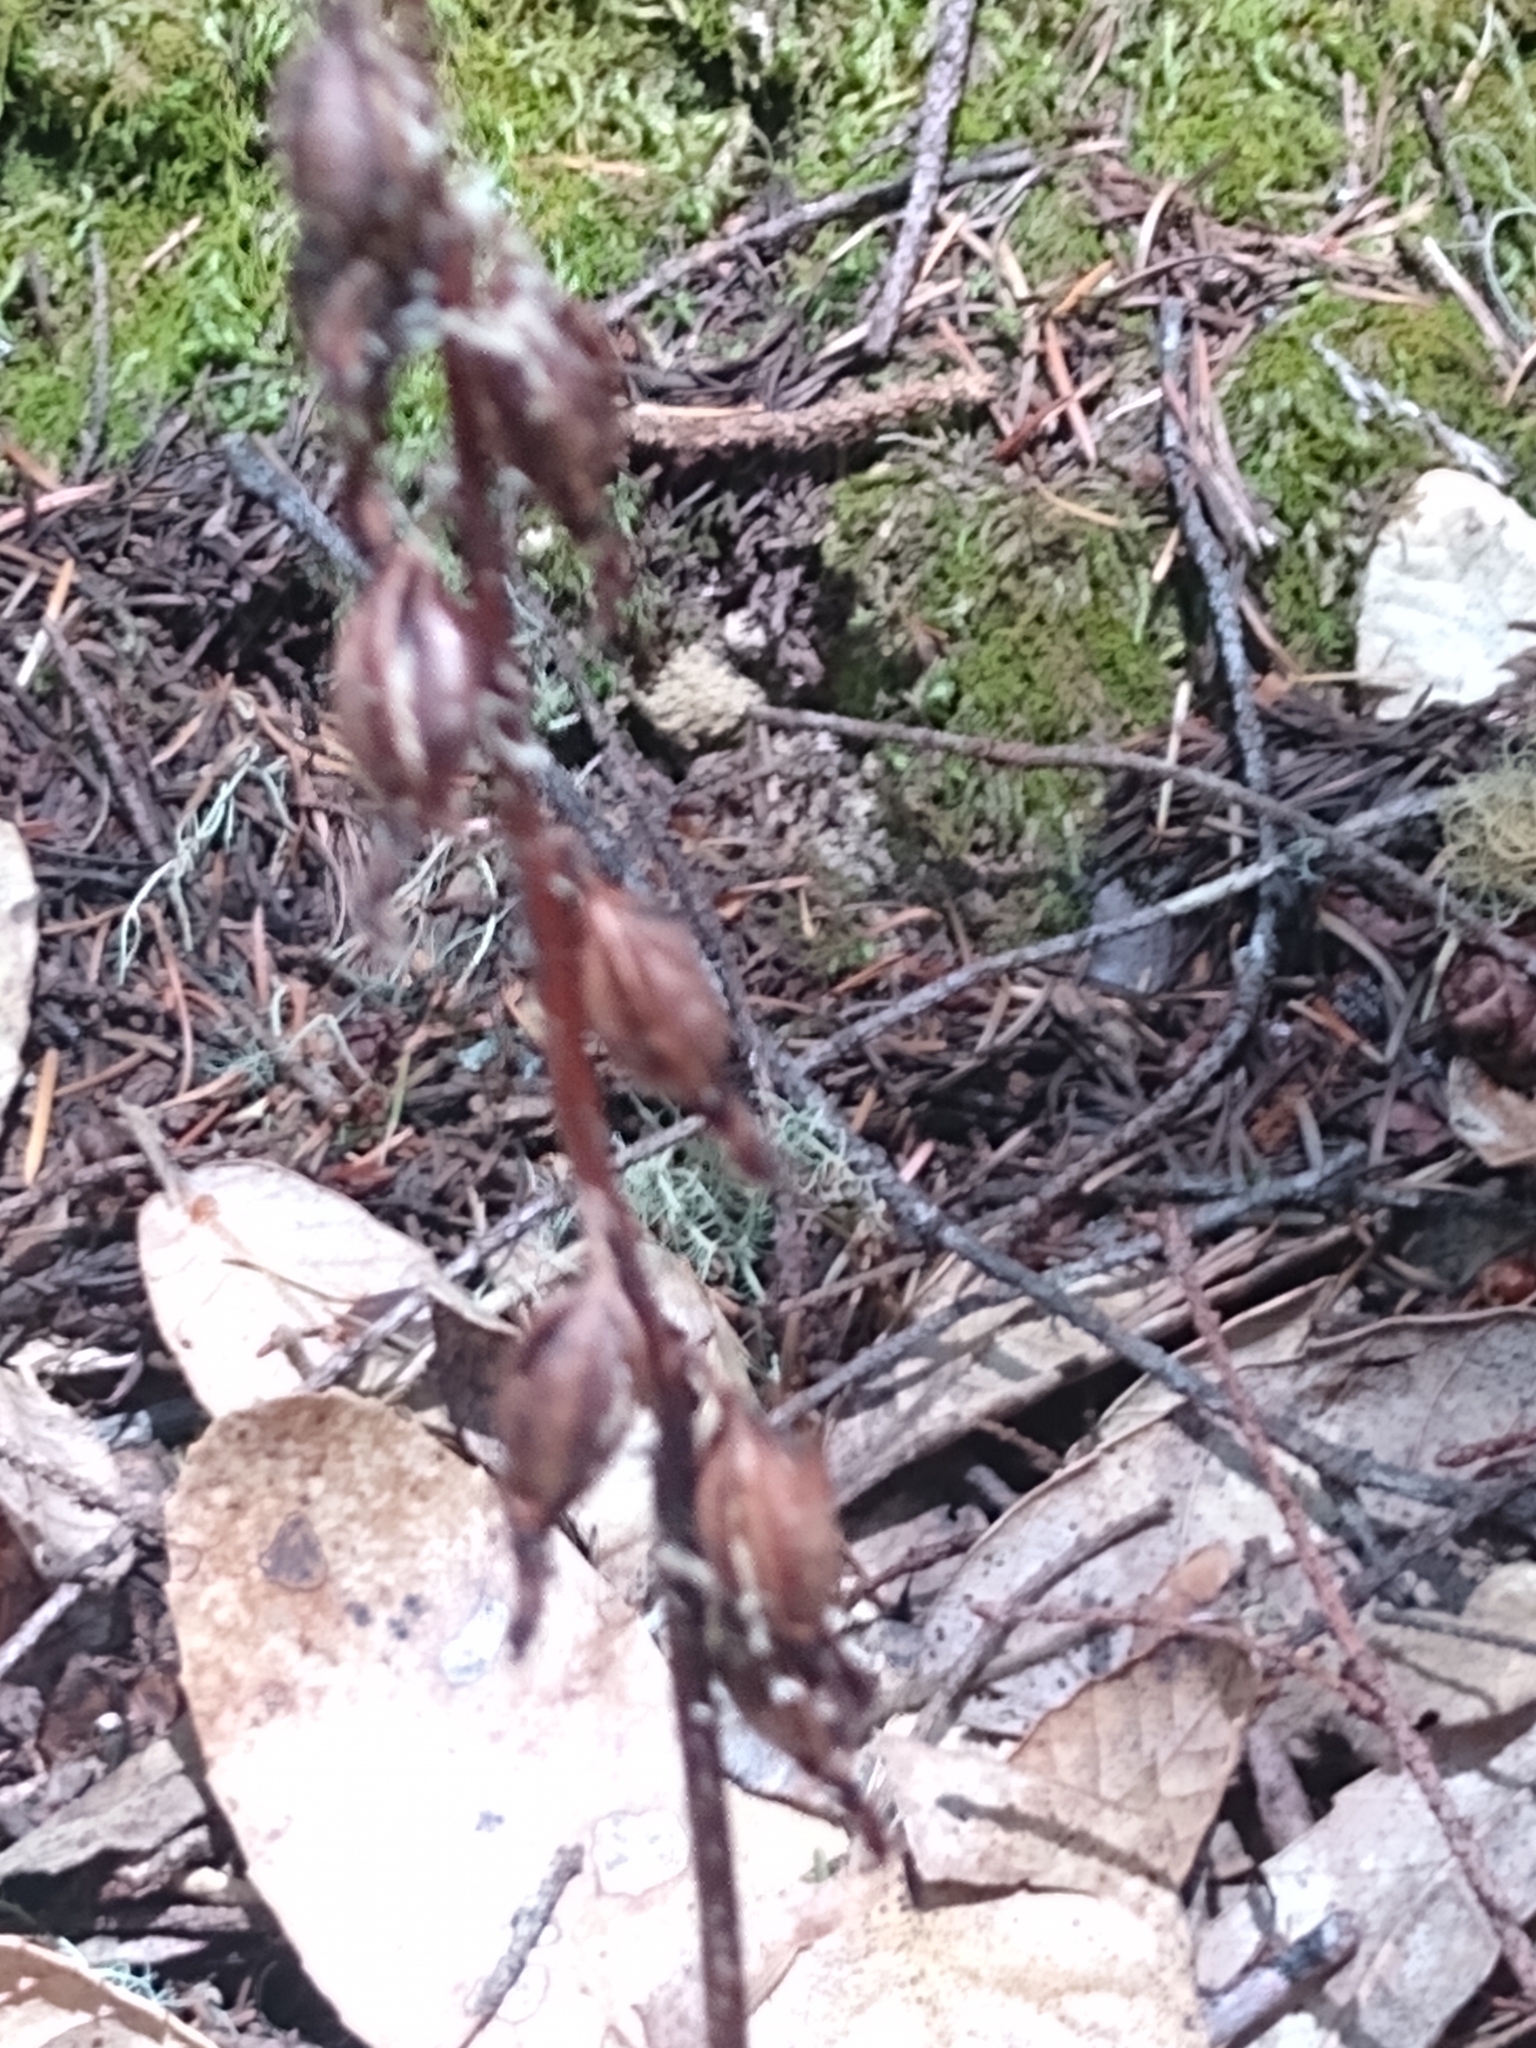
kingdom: Plantae
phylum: Tracheophyta
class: Liliopsida
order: Asparagales
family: Orchidaceae
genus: Corallorhiza
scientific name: Corallorhiza mertensiana
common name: Pacific coralroot
